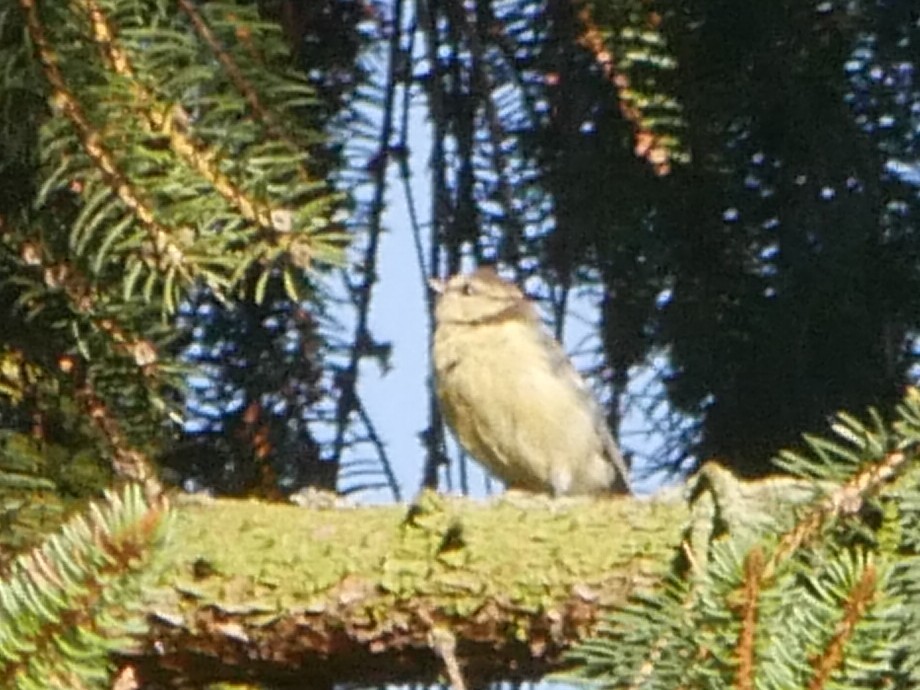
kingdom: Animalia
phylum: Chordata
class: Aves
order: Passeriformes
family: Paridae
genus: Cyanistes
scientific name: Cyanistes caeruleus
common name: Eurasian blue tit
